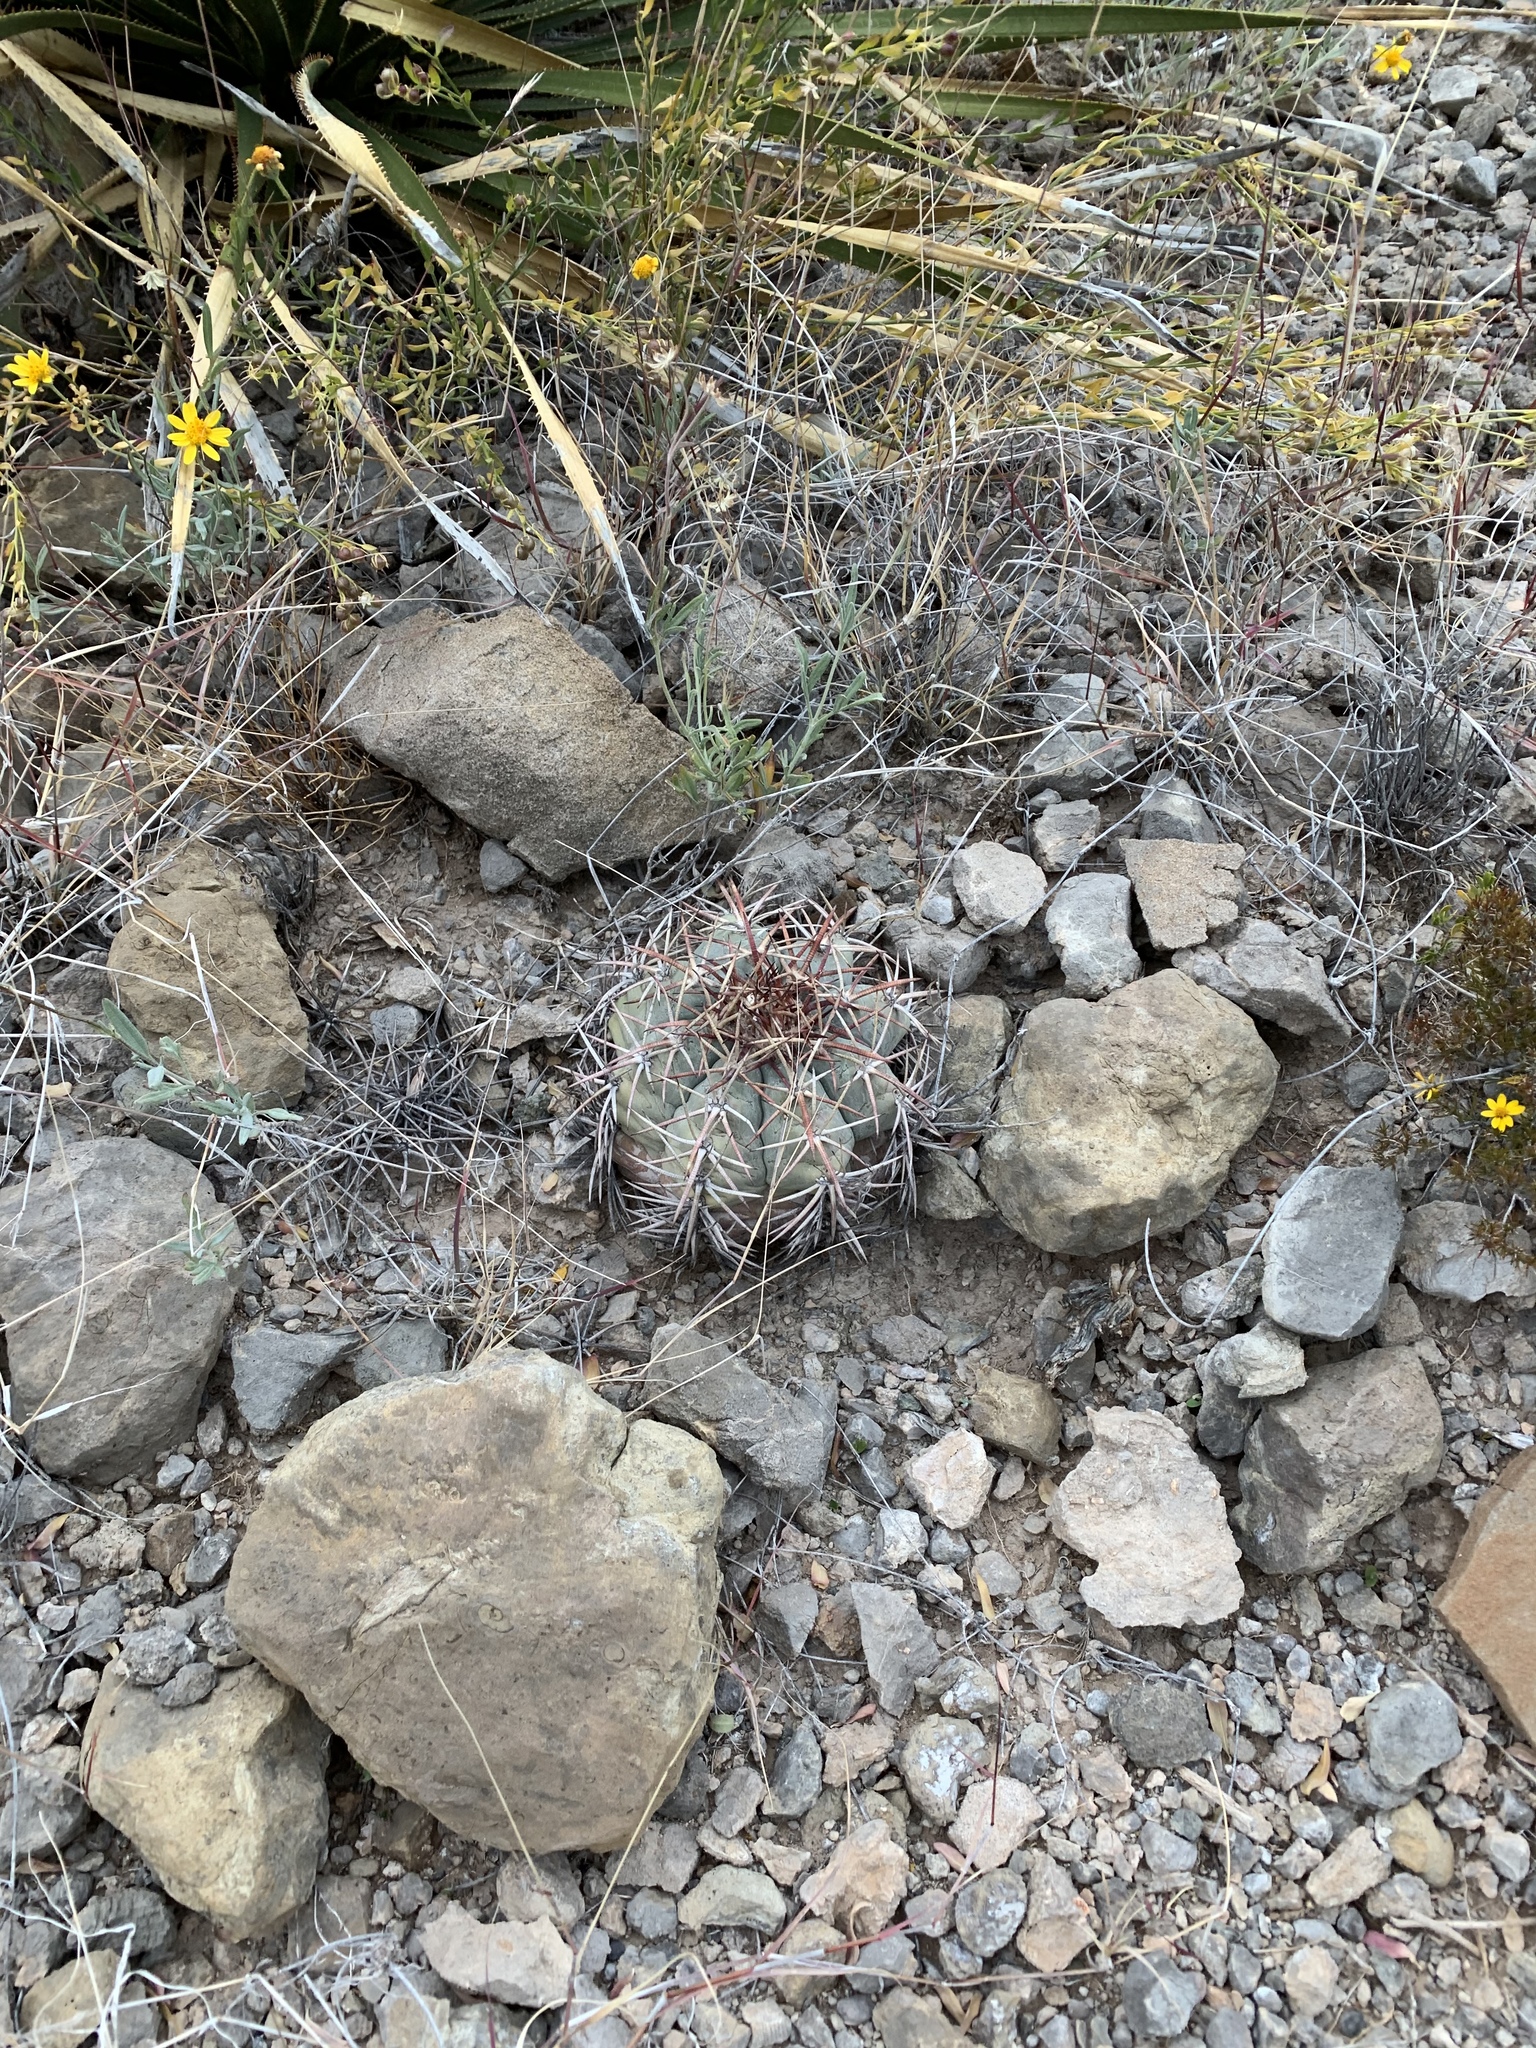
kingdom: Plantae
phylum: Tracheophyta
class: Magnoliopsida
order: Caryophyllales
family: Cactaceae
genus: Echinocactus
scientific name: Echinocactus horizonthalonius
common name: Devilshead
